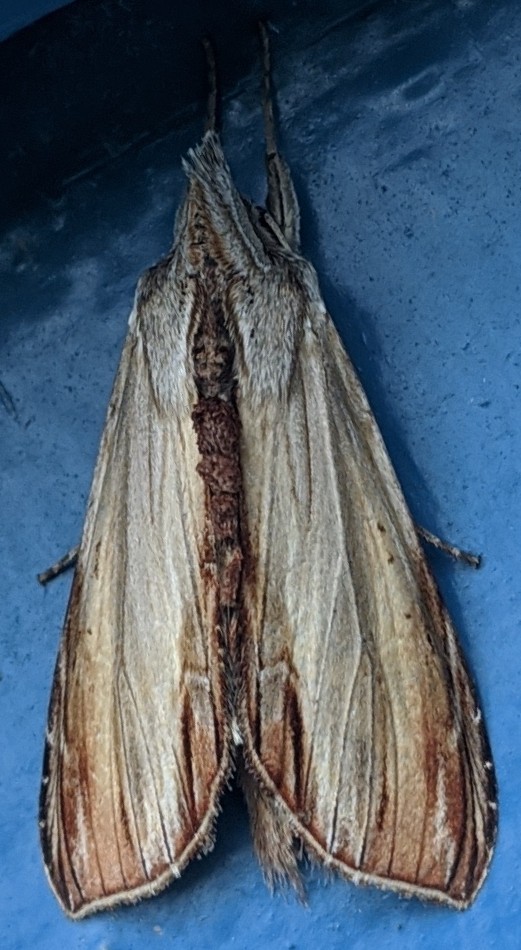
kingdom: Animalia
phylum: Arthropoda
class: Insecta
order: Lepidoptera
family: Noctuidae
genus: Cucullia
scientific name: Cucullia convexipennis
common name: Brown-hooded owlet
